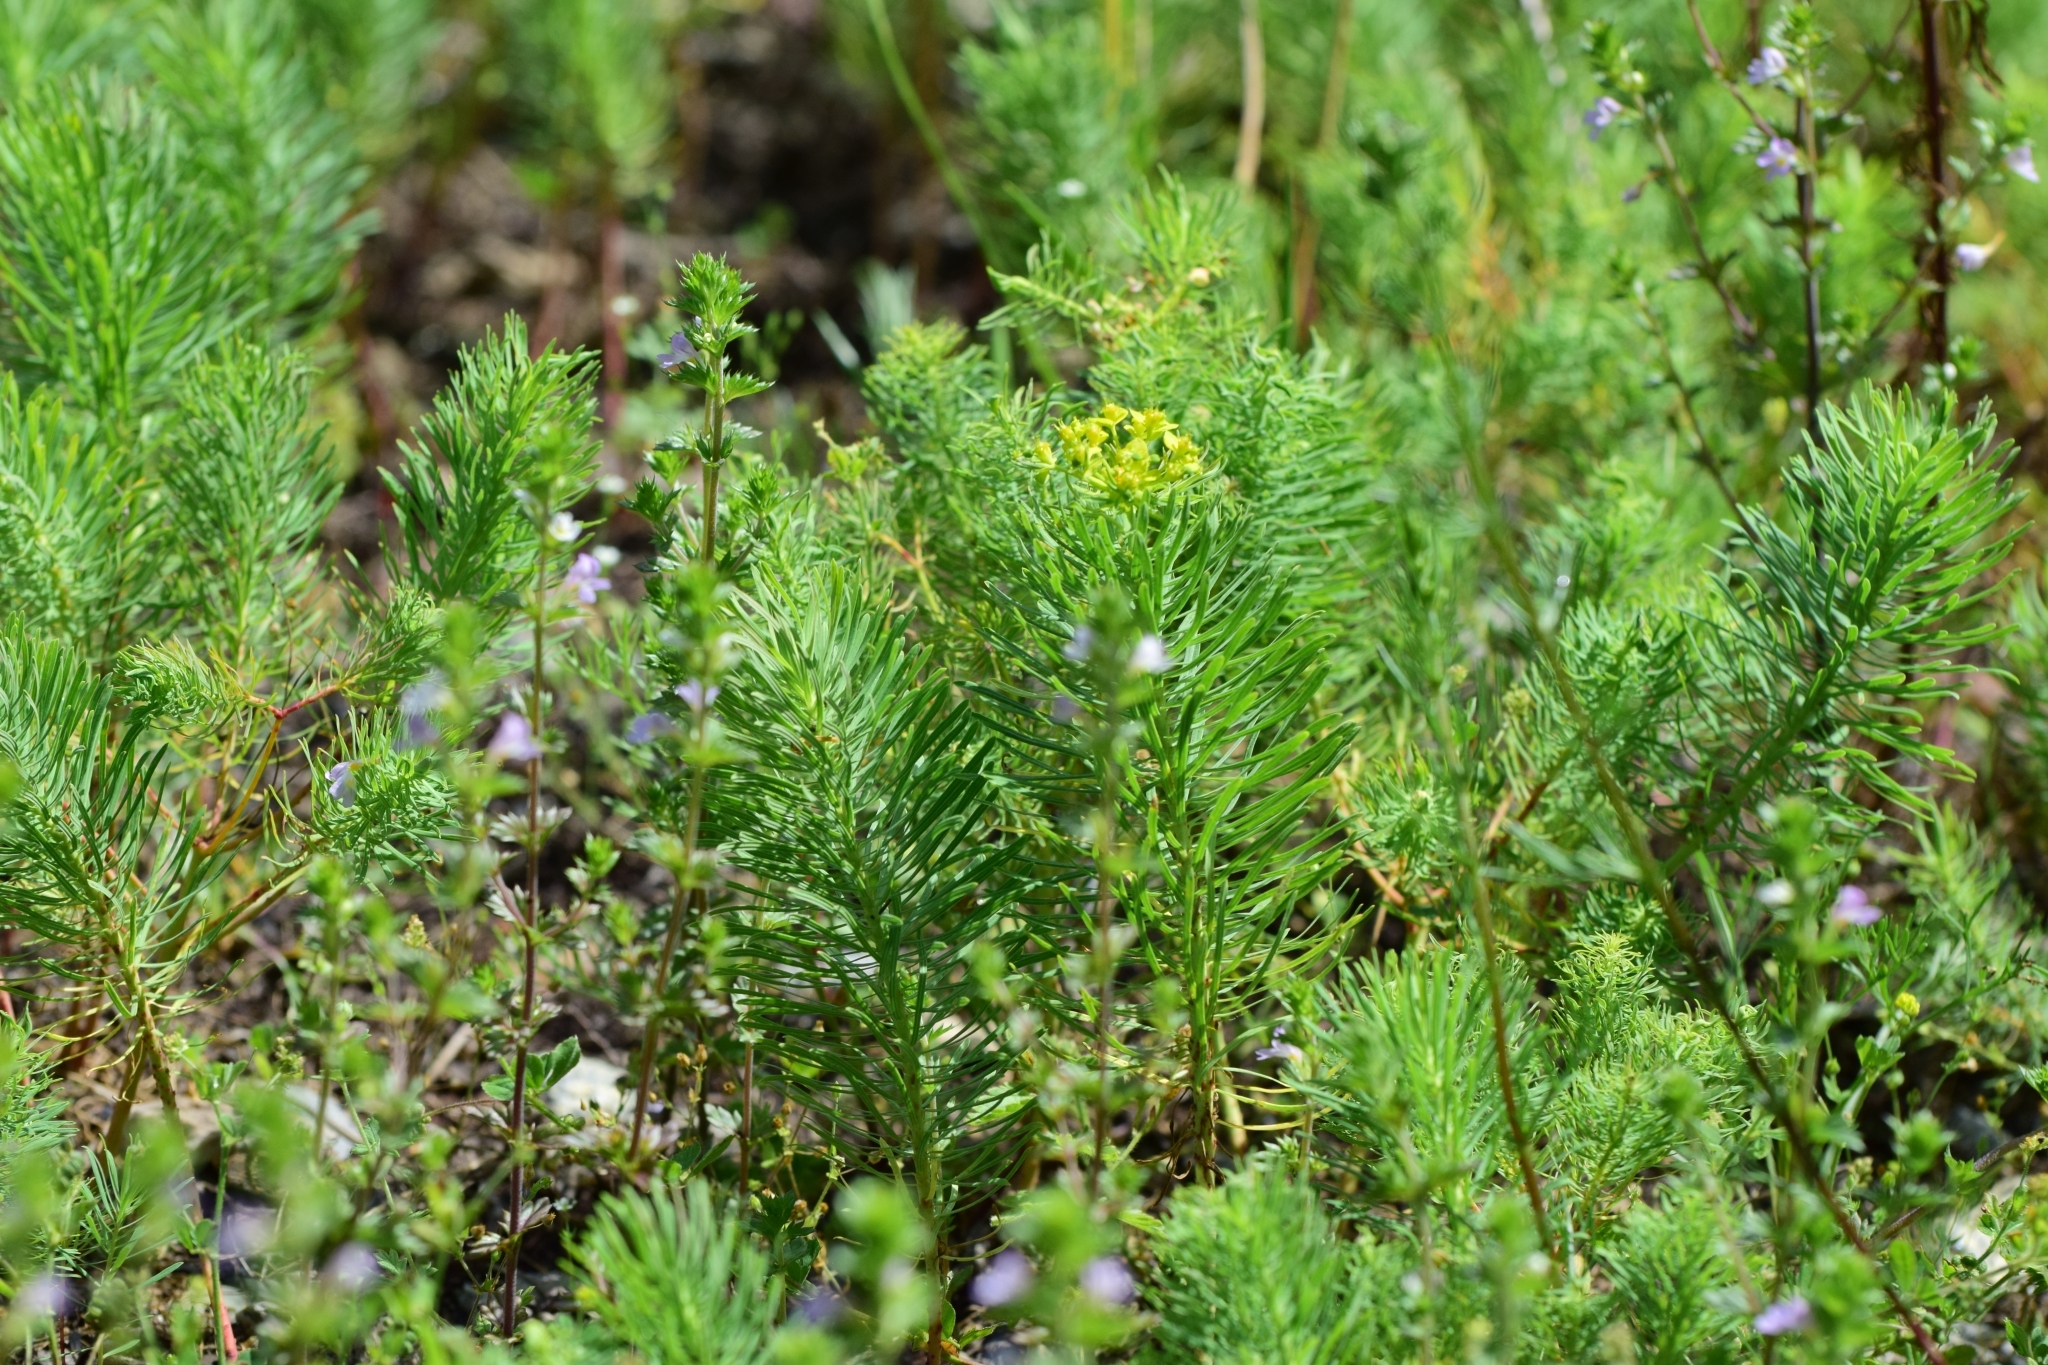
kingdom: Plantae
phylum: Tracheophyta
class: Magnoliopsida
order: Malpighiales
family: Euphorbiaceae
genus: Euphorbia
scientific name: Euphorbia cyparissias
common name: Cypress spurge
